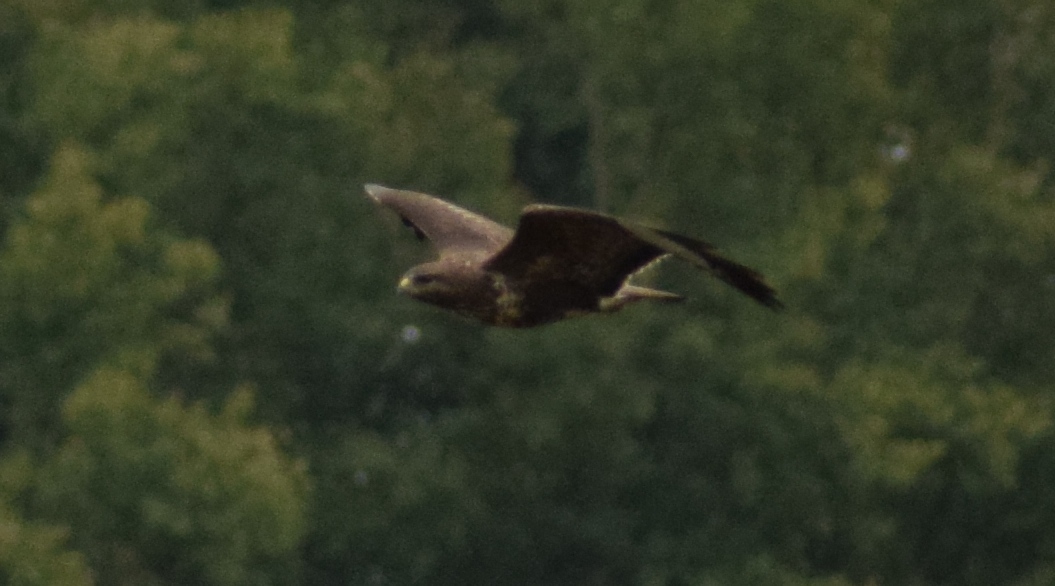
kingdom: Animalia
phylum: Chordata
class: Aves
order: Accipitriformes
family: Accipitridae
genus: Buteo
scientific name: Buteo buteo
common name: Common buzzard
